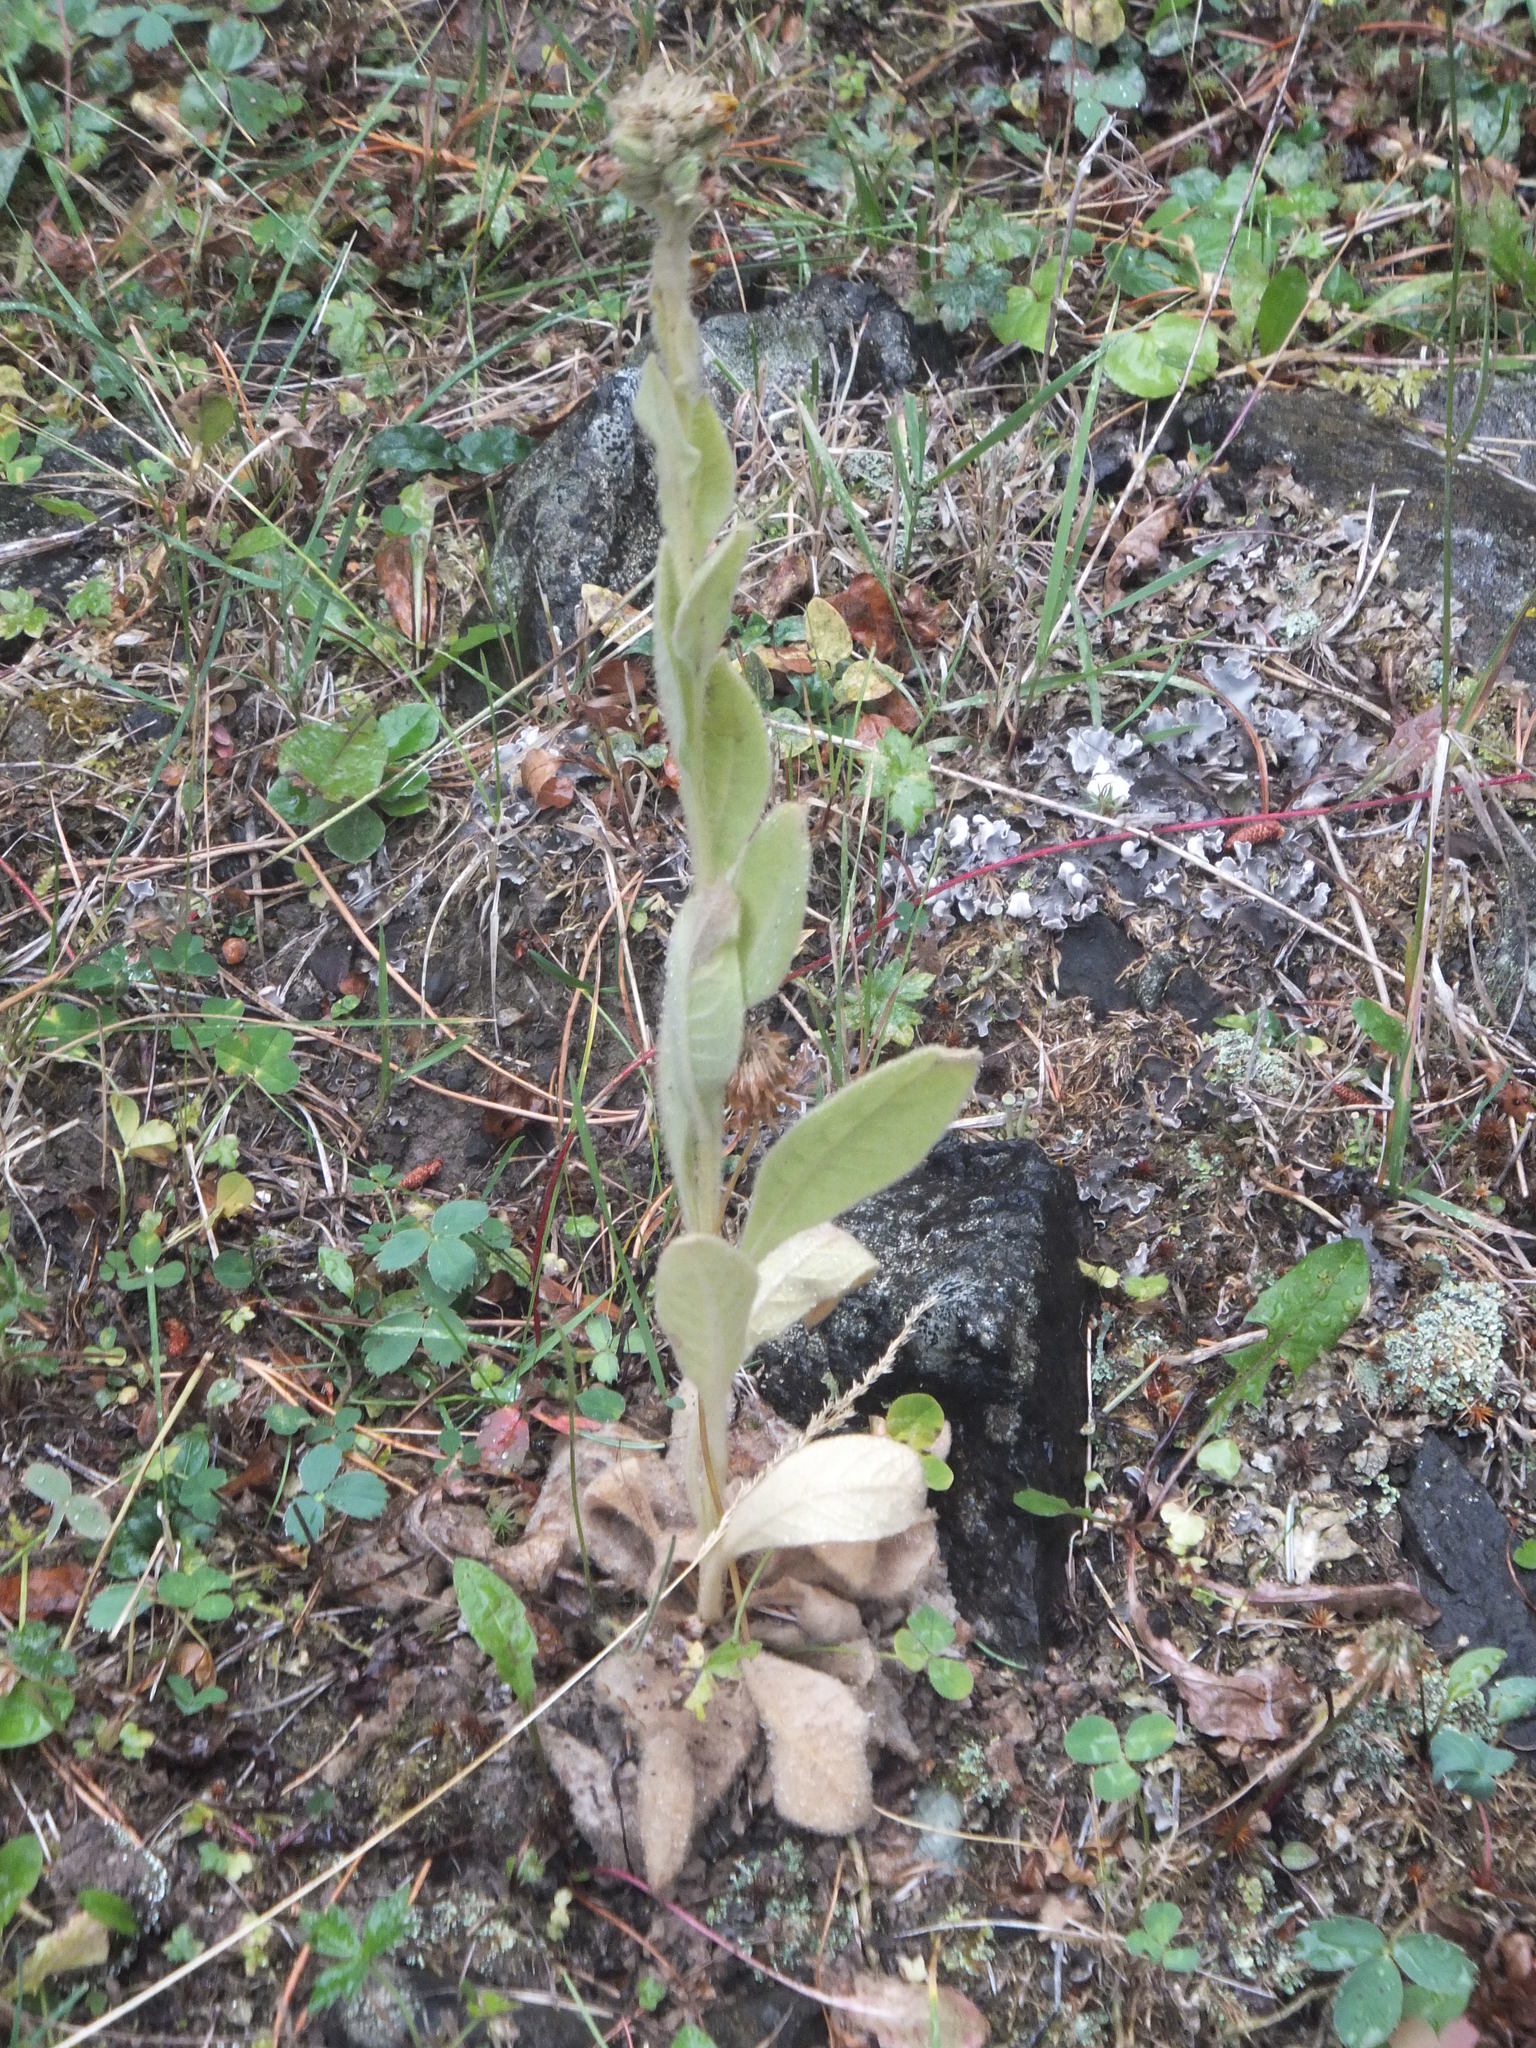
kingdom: Plantae
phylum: Tracheophyta
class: Magnoliopsida
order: Lamiales
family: Scrophulariaceae
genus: Verbascum
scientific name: Verbascum thapsus
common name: Common mullein
